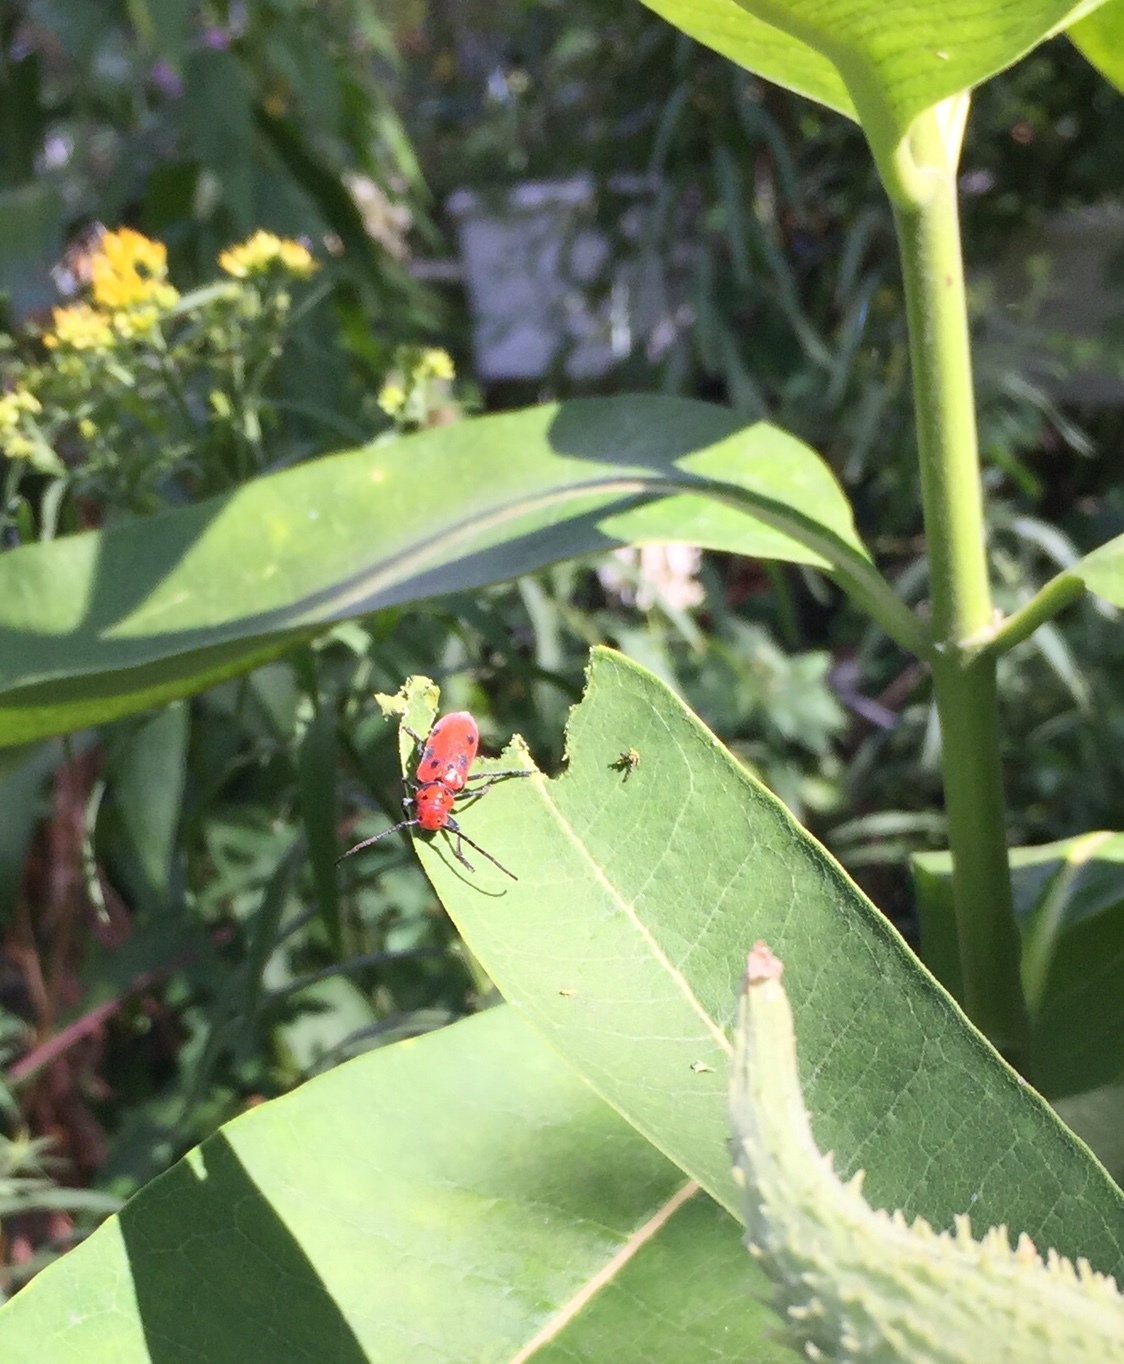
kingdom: Animalia
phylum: Arthropoda
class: Insecta
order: Coleoptera
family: Cerambycidae
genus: Tetraopes
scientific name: Tetraopes tetrophthalmus
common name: Red milkweed beetle
